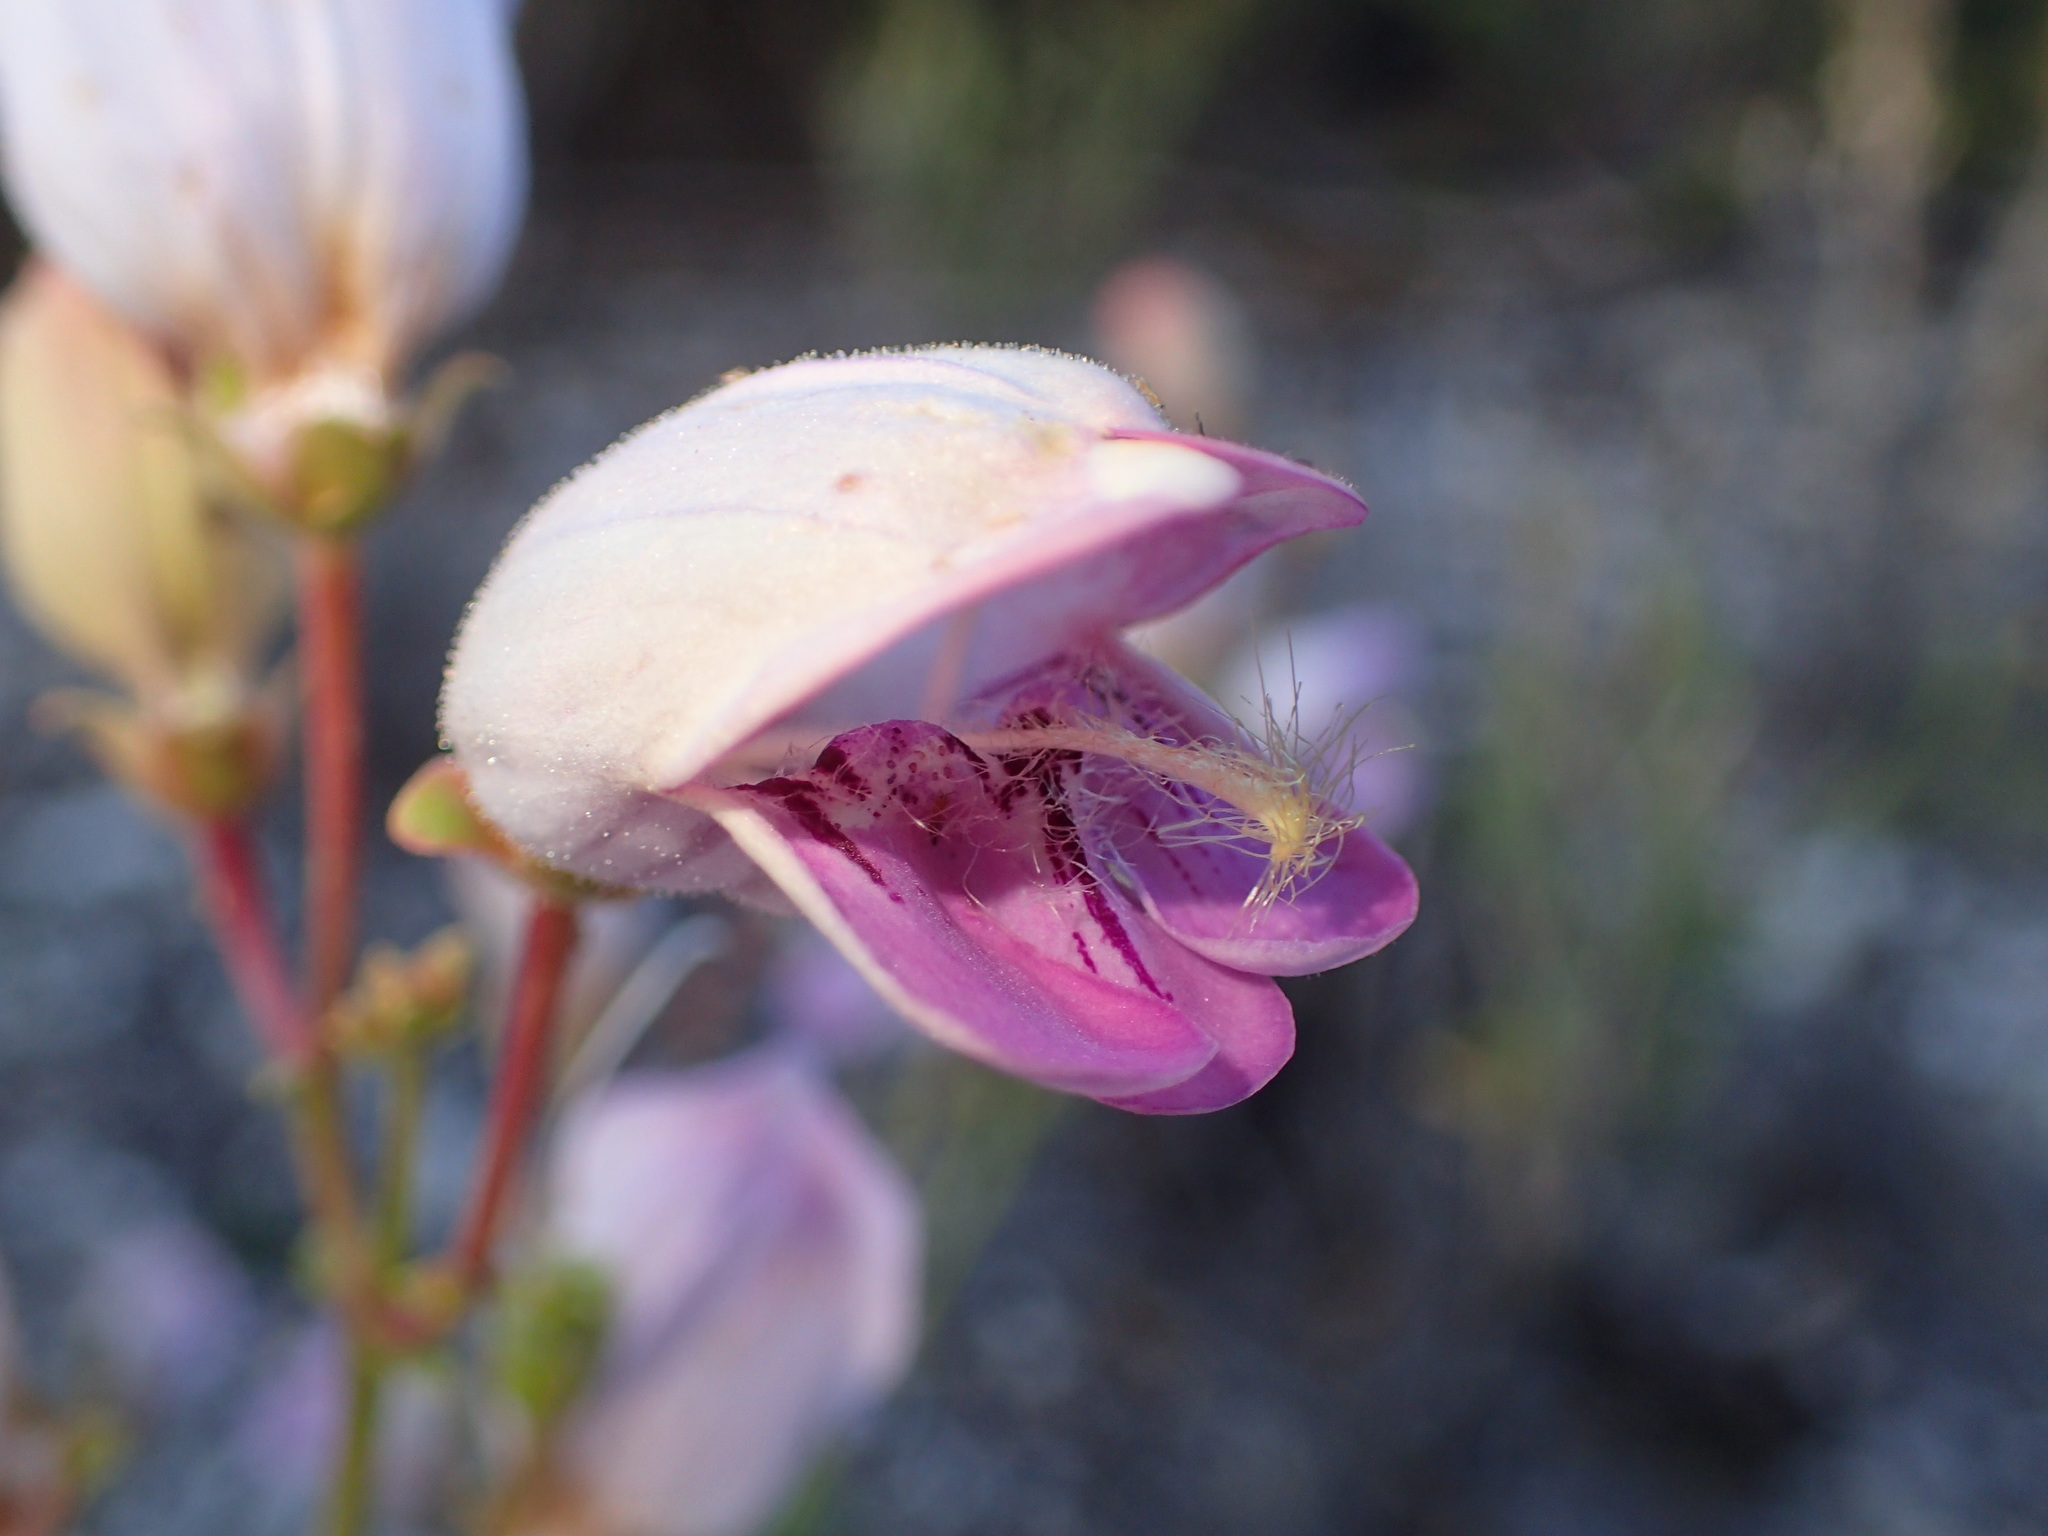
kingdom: Plantae
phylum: Tracheophyta
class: Magnoliopsida
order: Lamiales
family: Plantaginaceae
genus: Penstemon
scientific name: Penstemon grinnellii
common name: Grinnell's beardtongue
